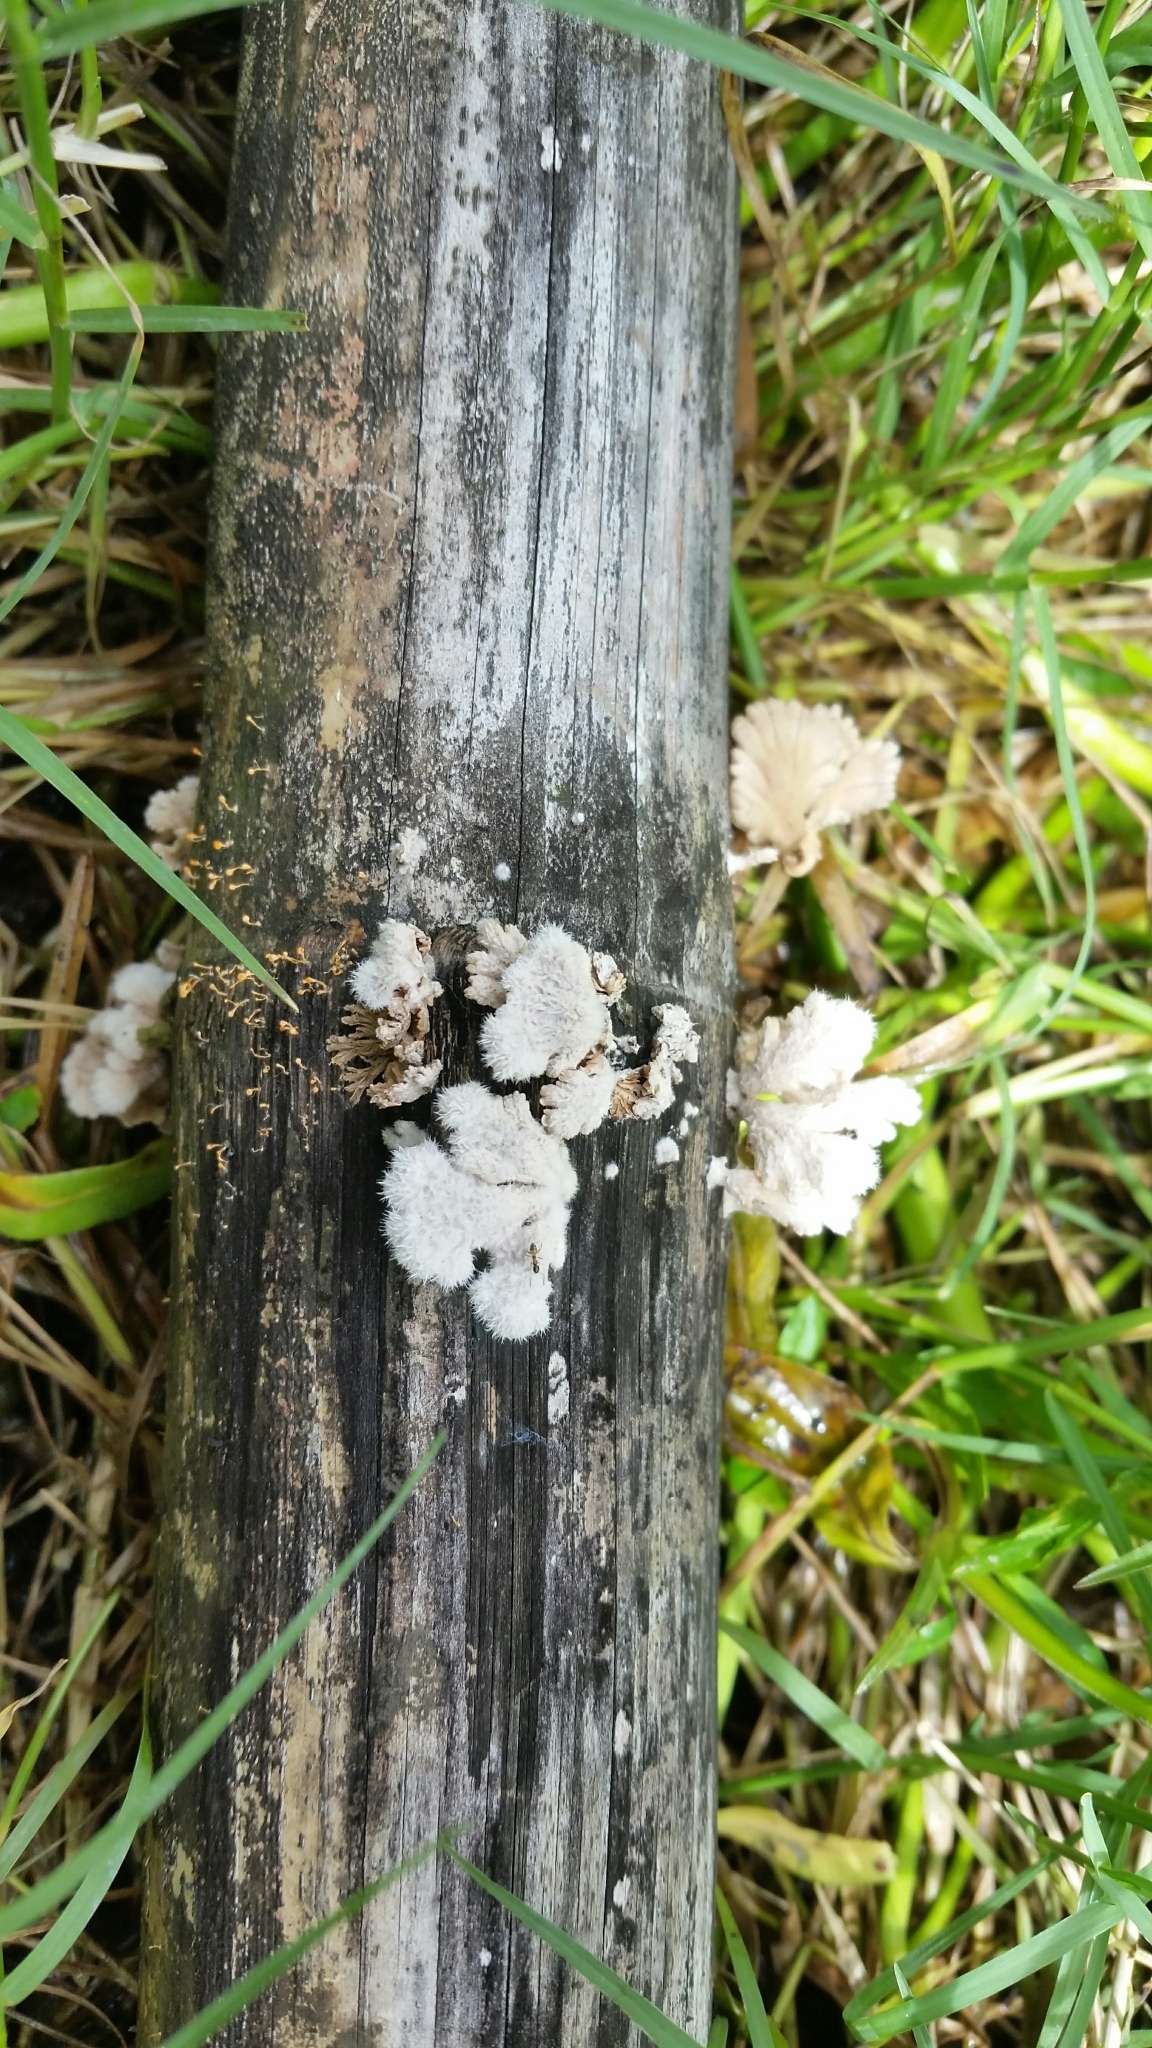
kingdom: Fungi
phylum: Basidiomycota
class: Agaricomycetes
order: Agaricales
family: Schizophyllaceae
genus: Schizophyllum
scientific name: Schizophyllum commune
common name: Common porecrust
